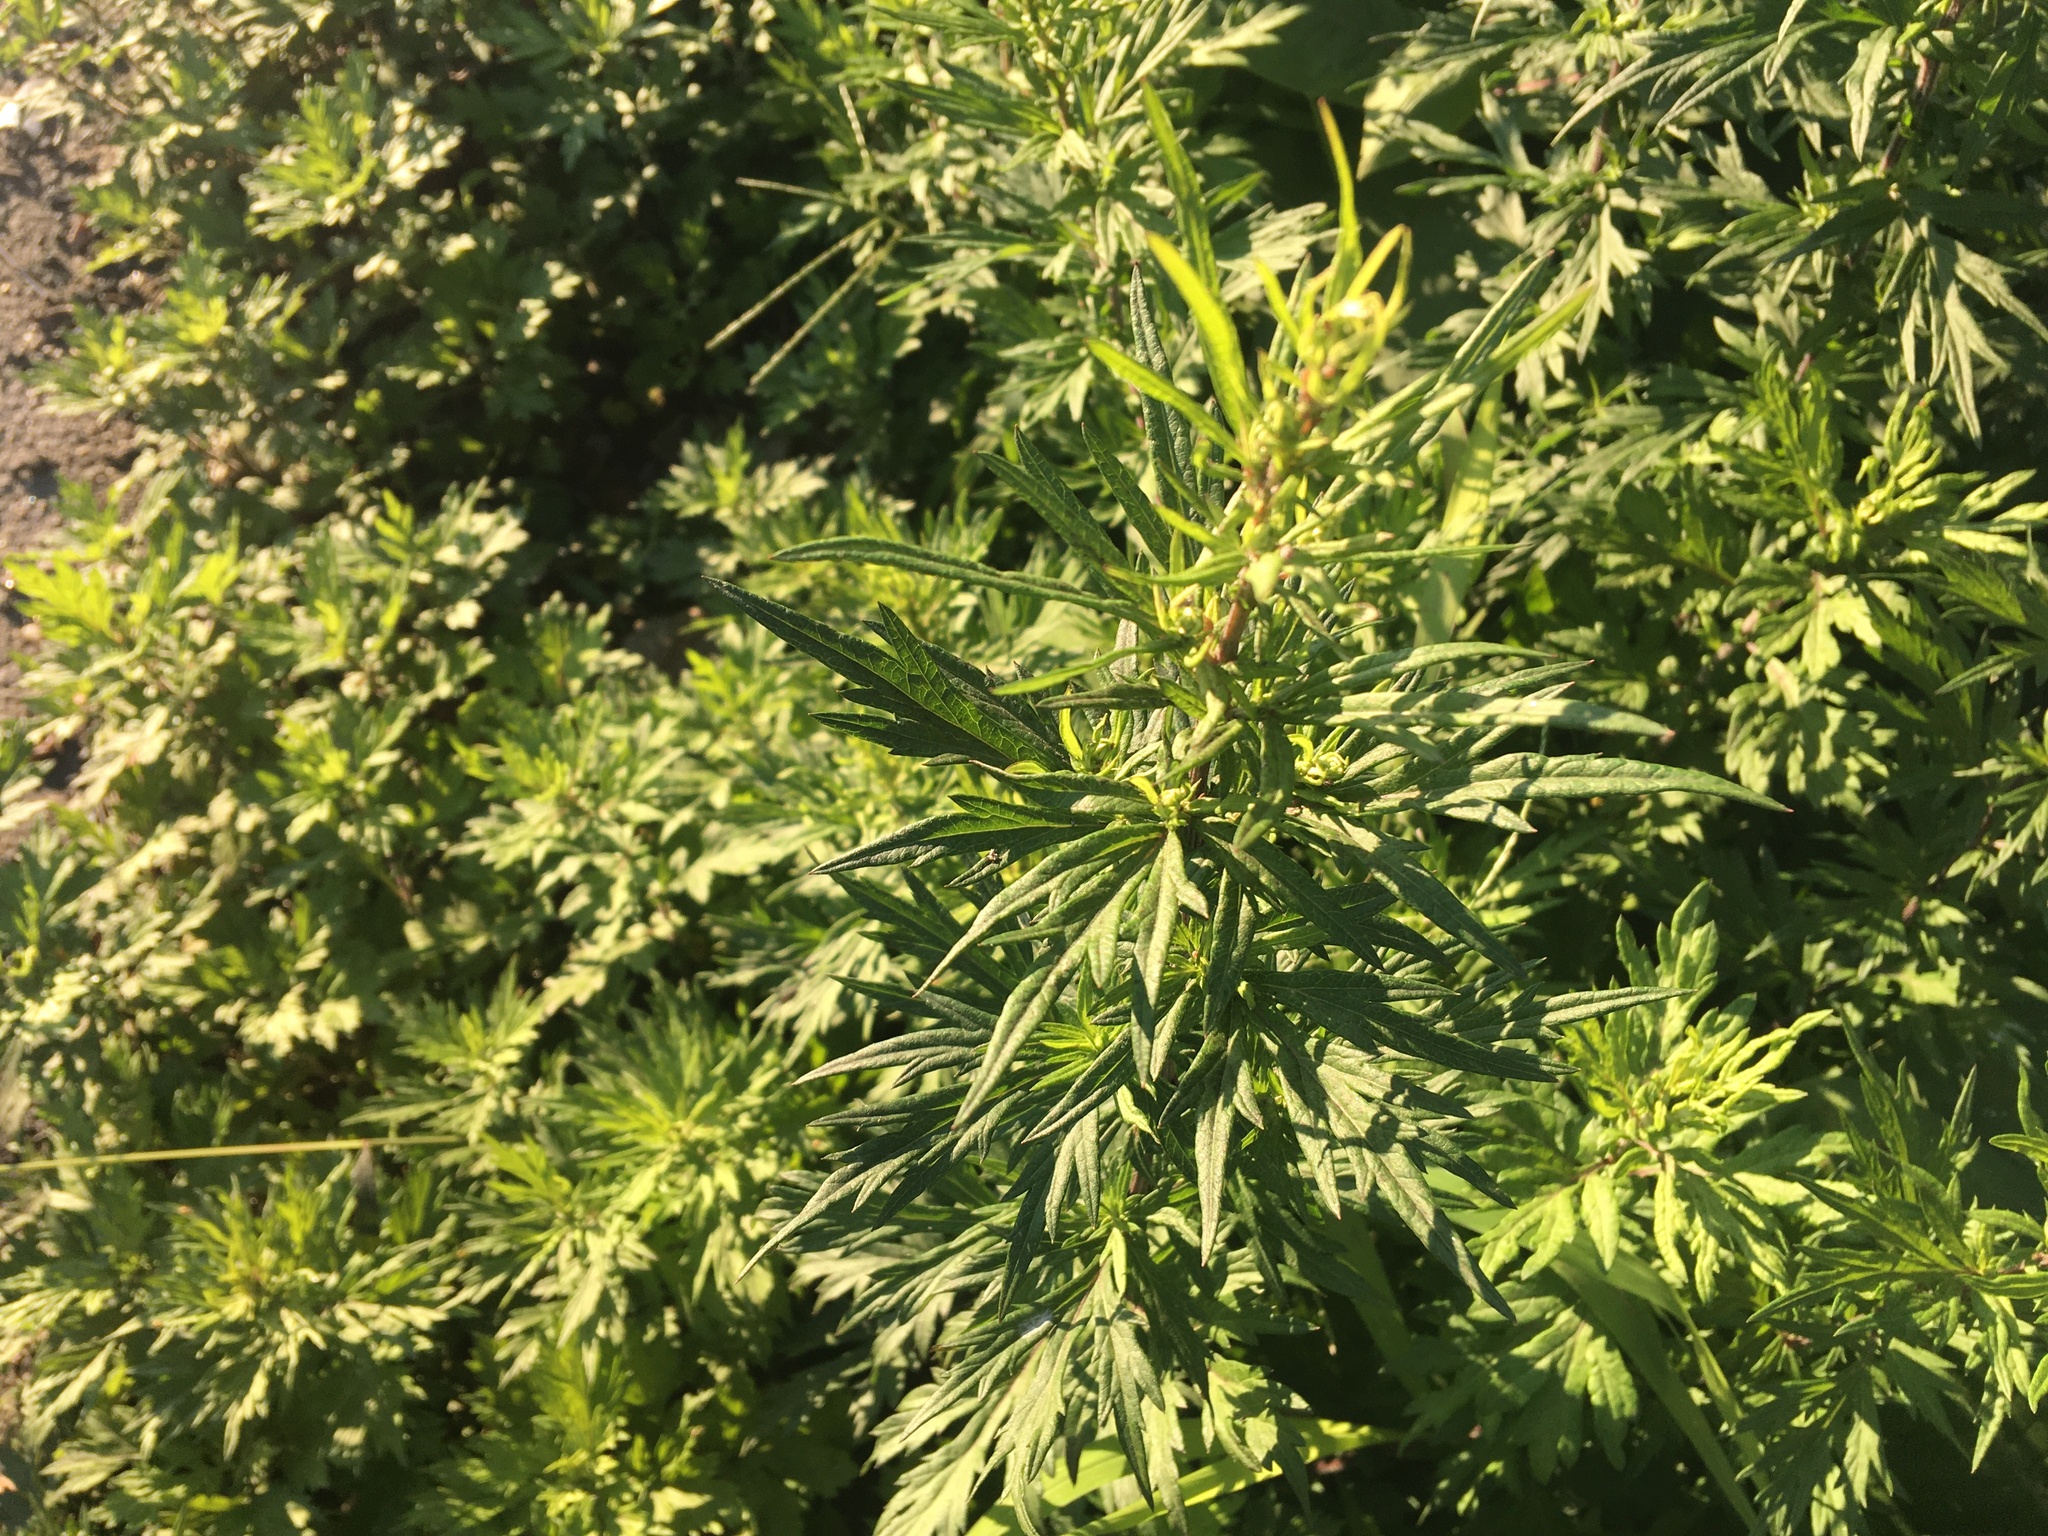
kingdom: Plantae
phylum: Tracheophyta
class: Magnoliopsida
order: Asterales
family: Asteraceae
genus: Artemisia
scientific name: Artemisia vulgaris
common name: Mugwort
